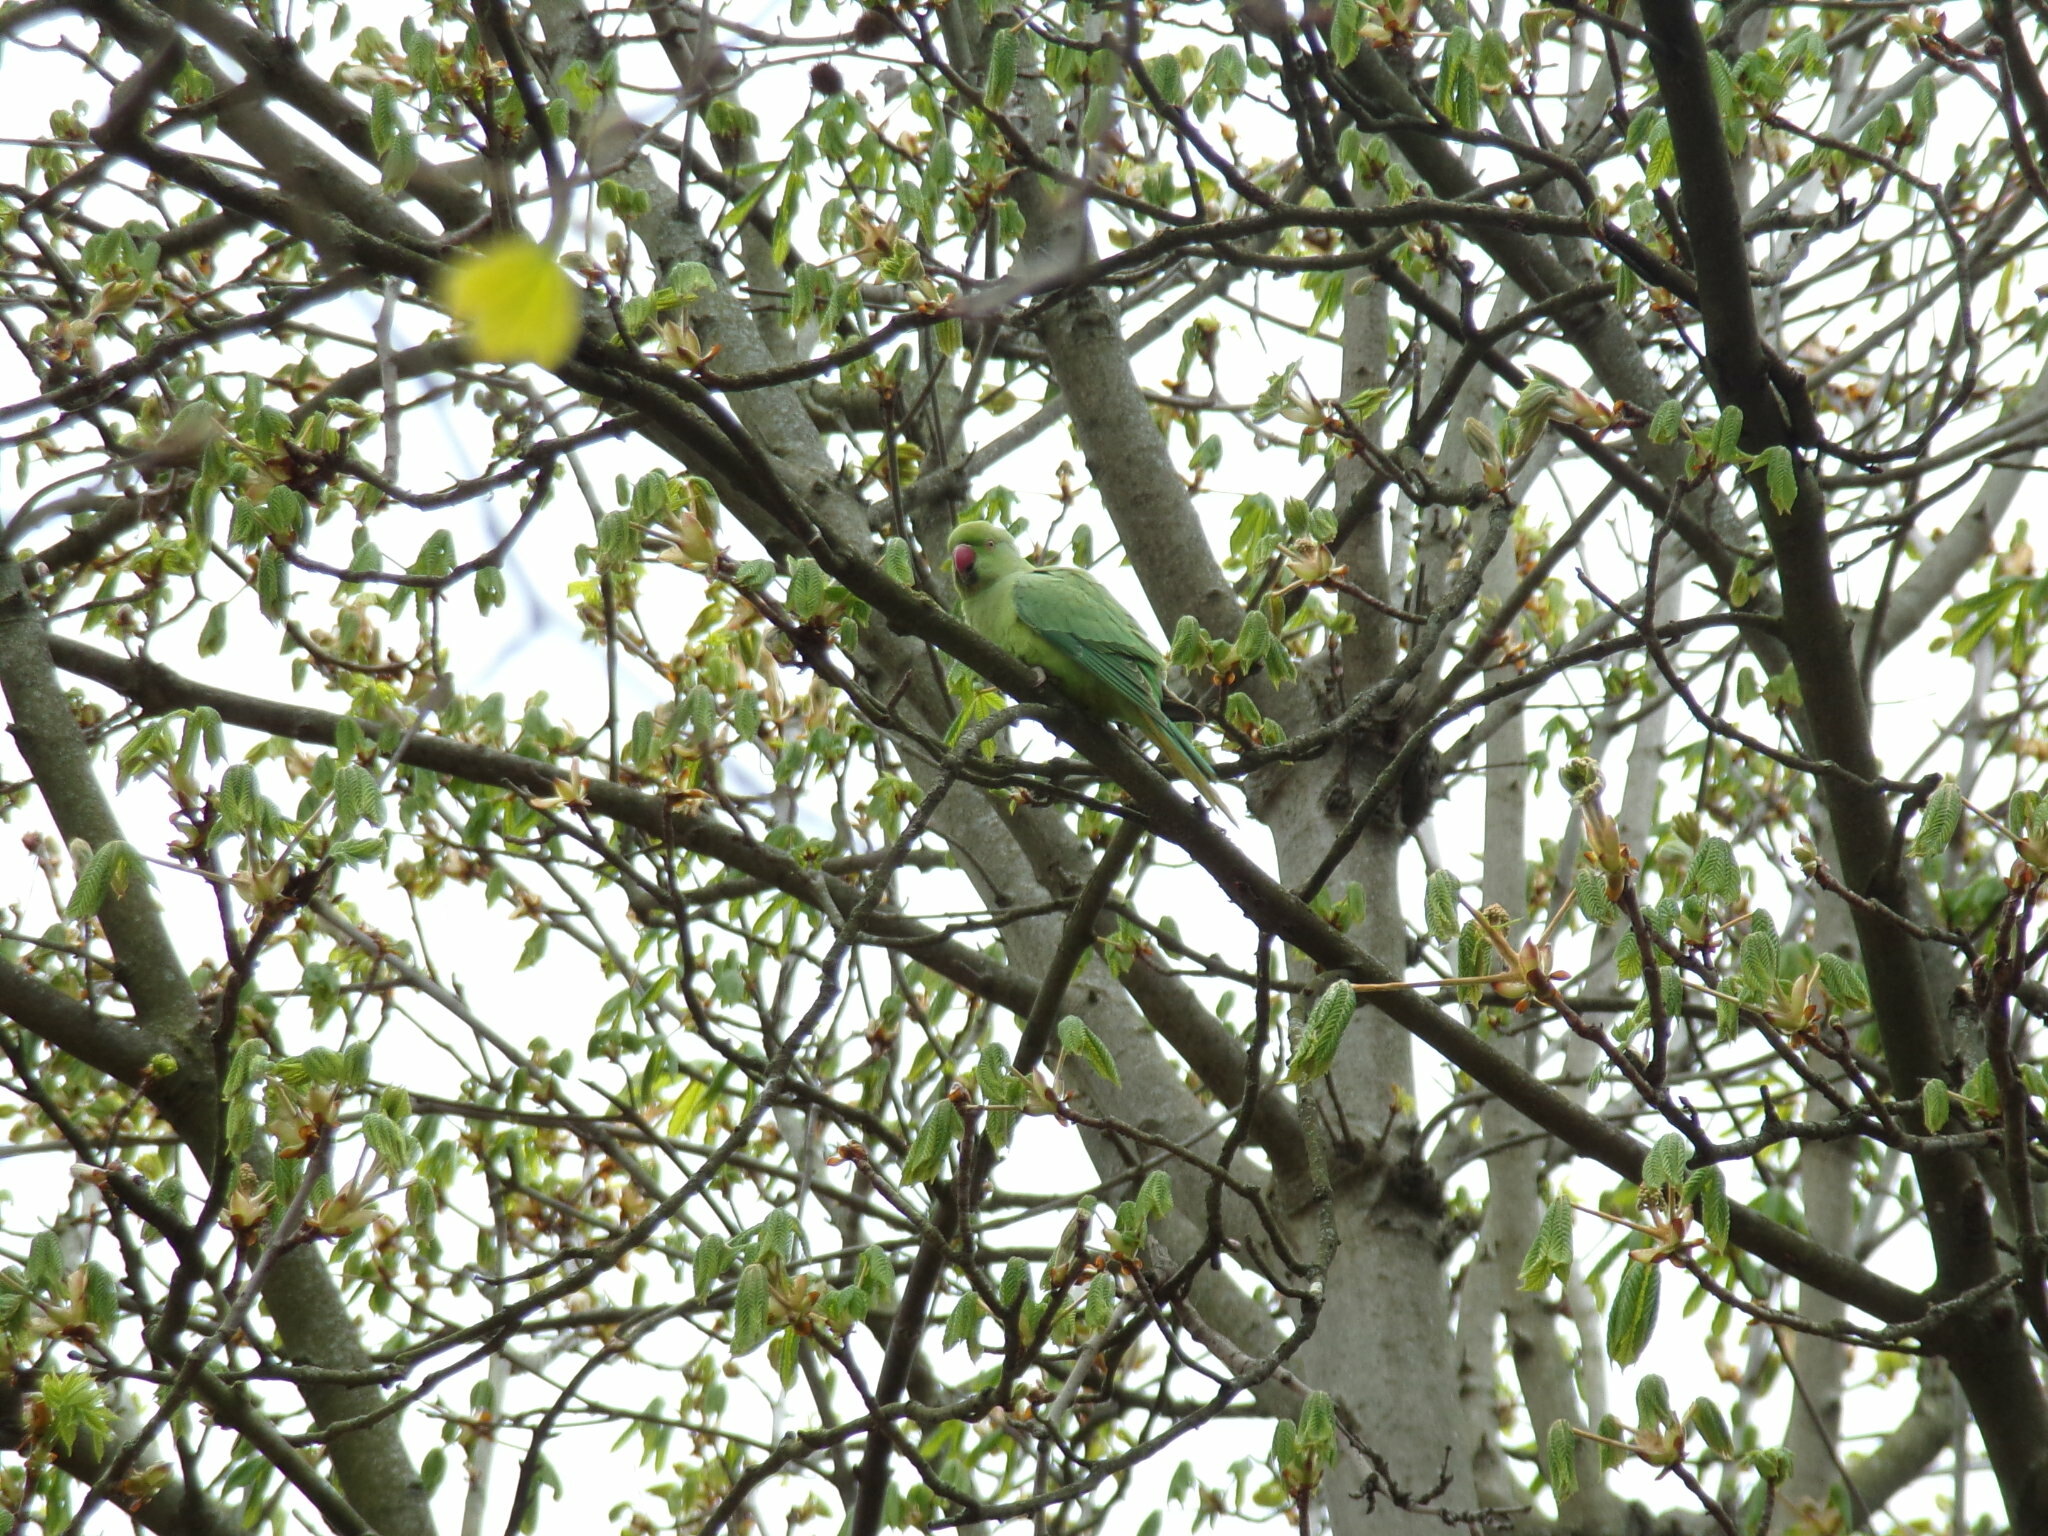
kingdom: Animalia
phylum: Chordata
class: Aves
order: Psittaciformes
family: Psittacidae
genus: Psittacula
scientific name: Psittacula krameri
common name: Rose-ringed parakeet
